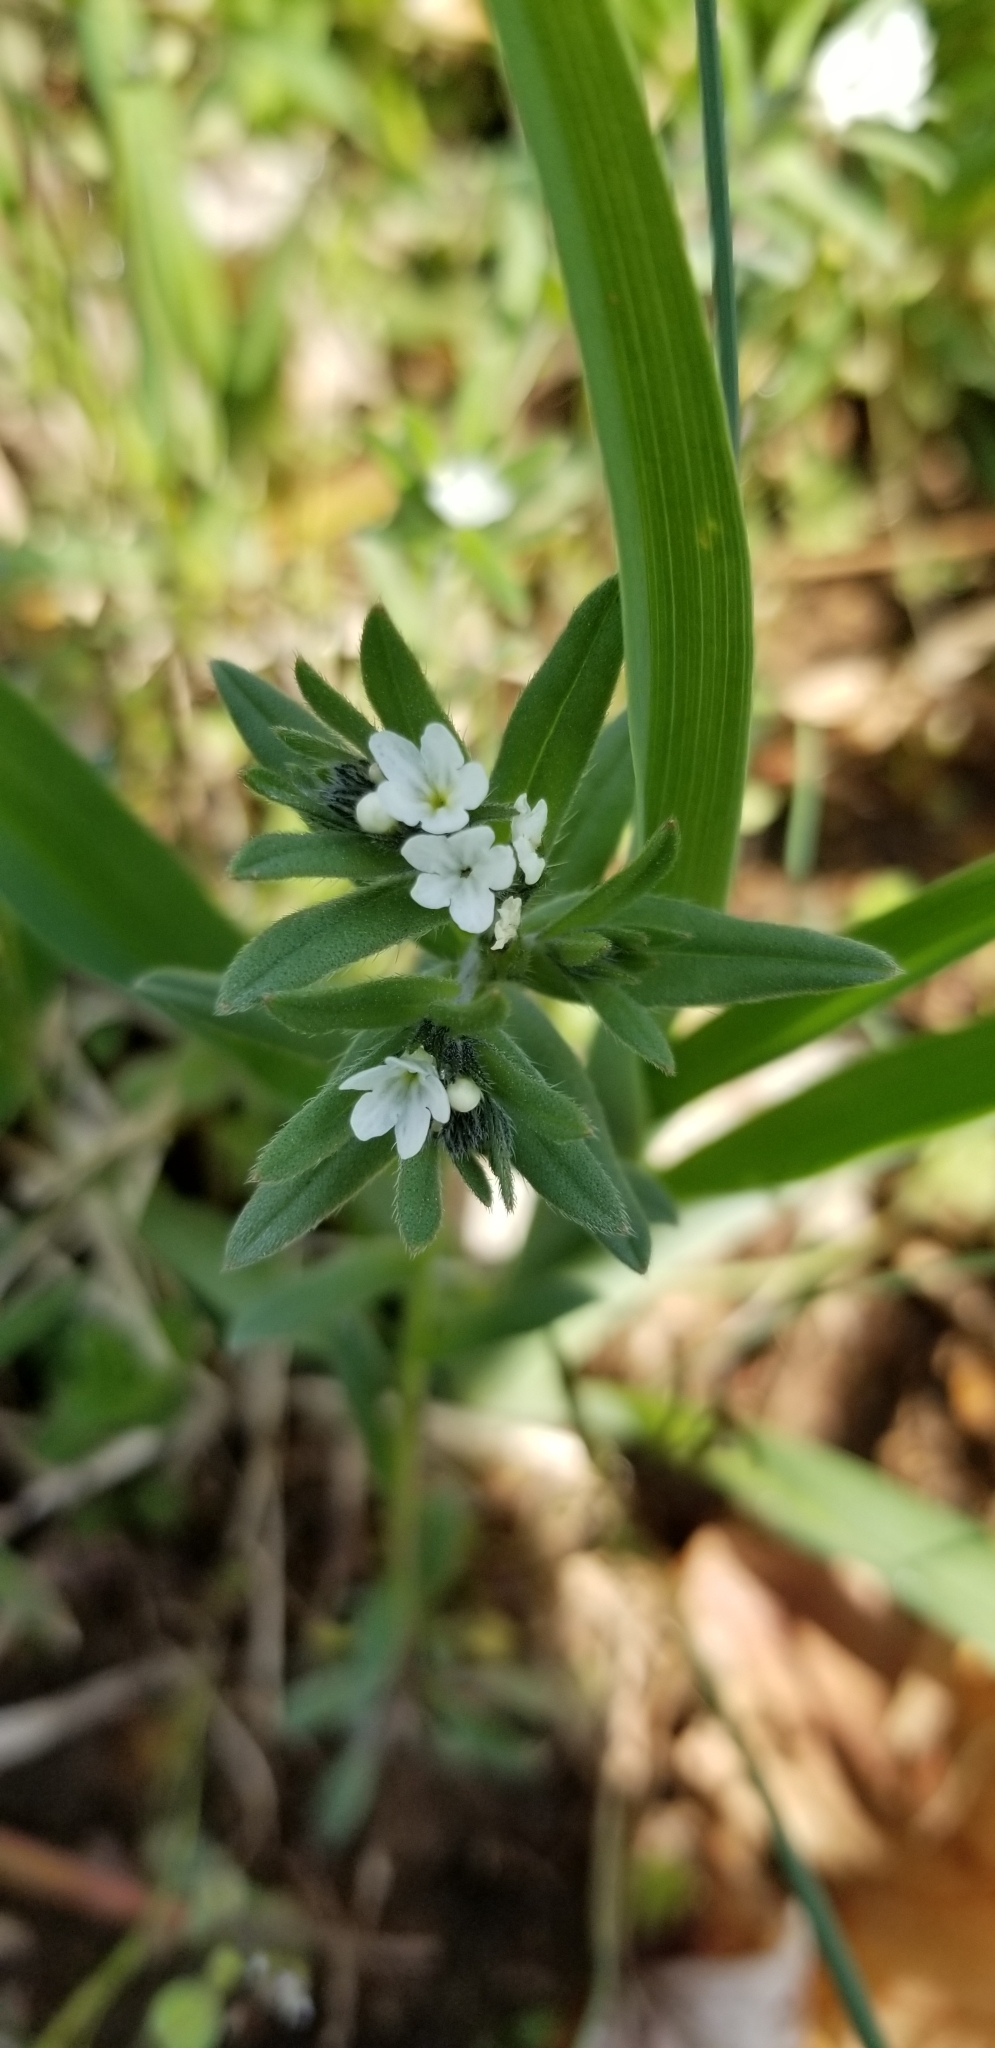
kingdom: Plantae
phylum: Tracheophyta
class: Magnoliopsida
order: Boraginales
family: Boraginaceae
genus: Buglossoides
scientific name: Buglossoides arvensis
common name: Corn gromwell
